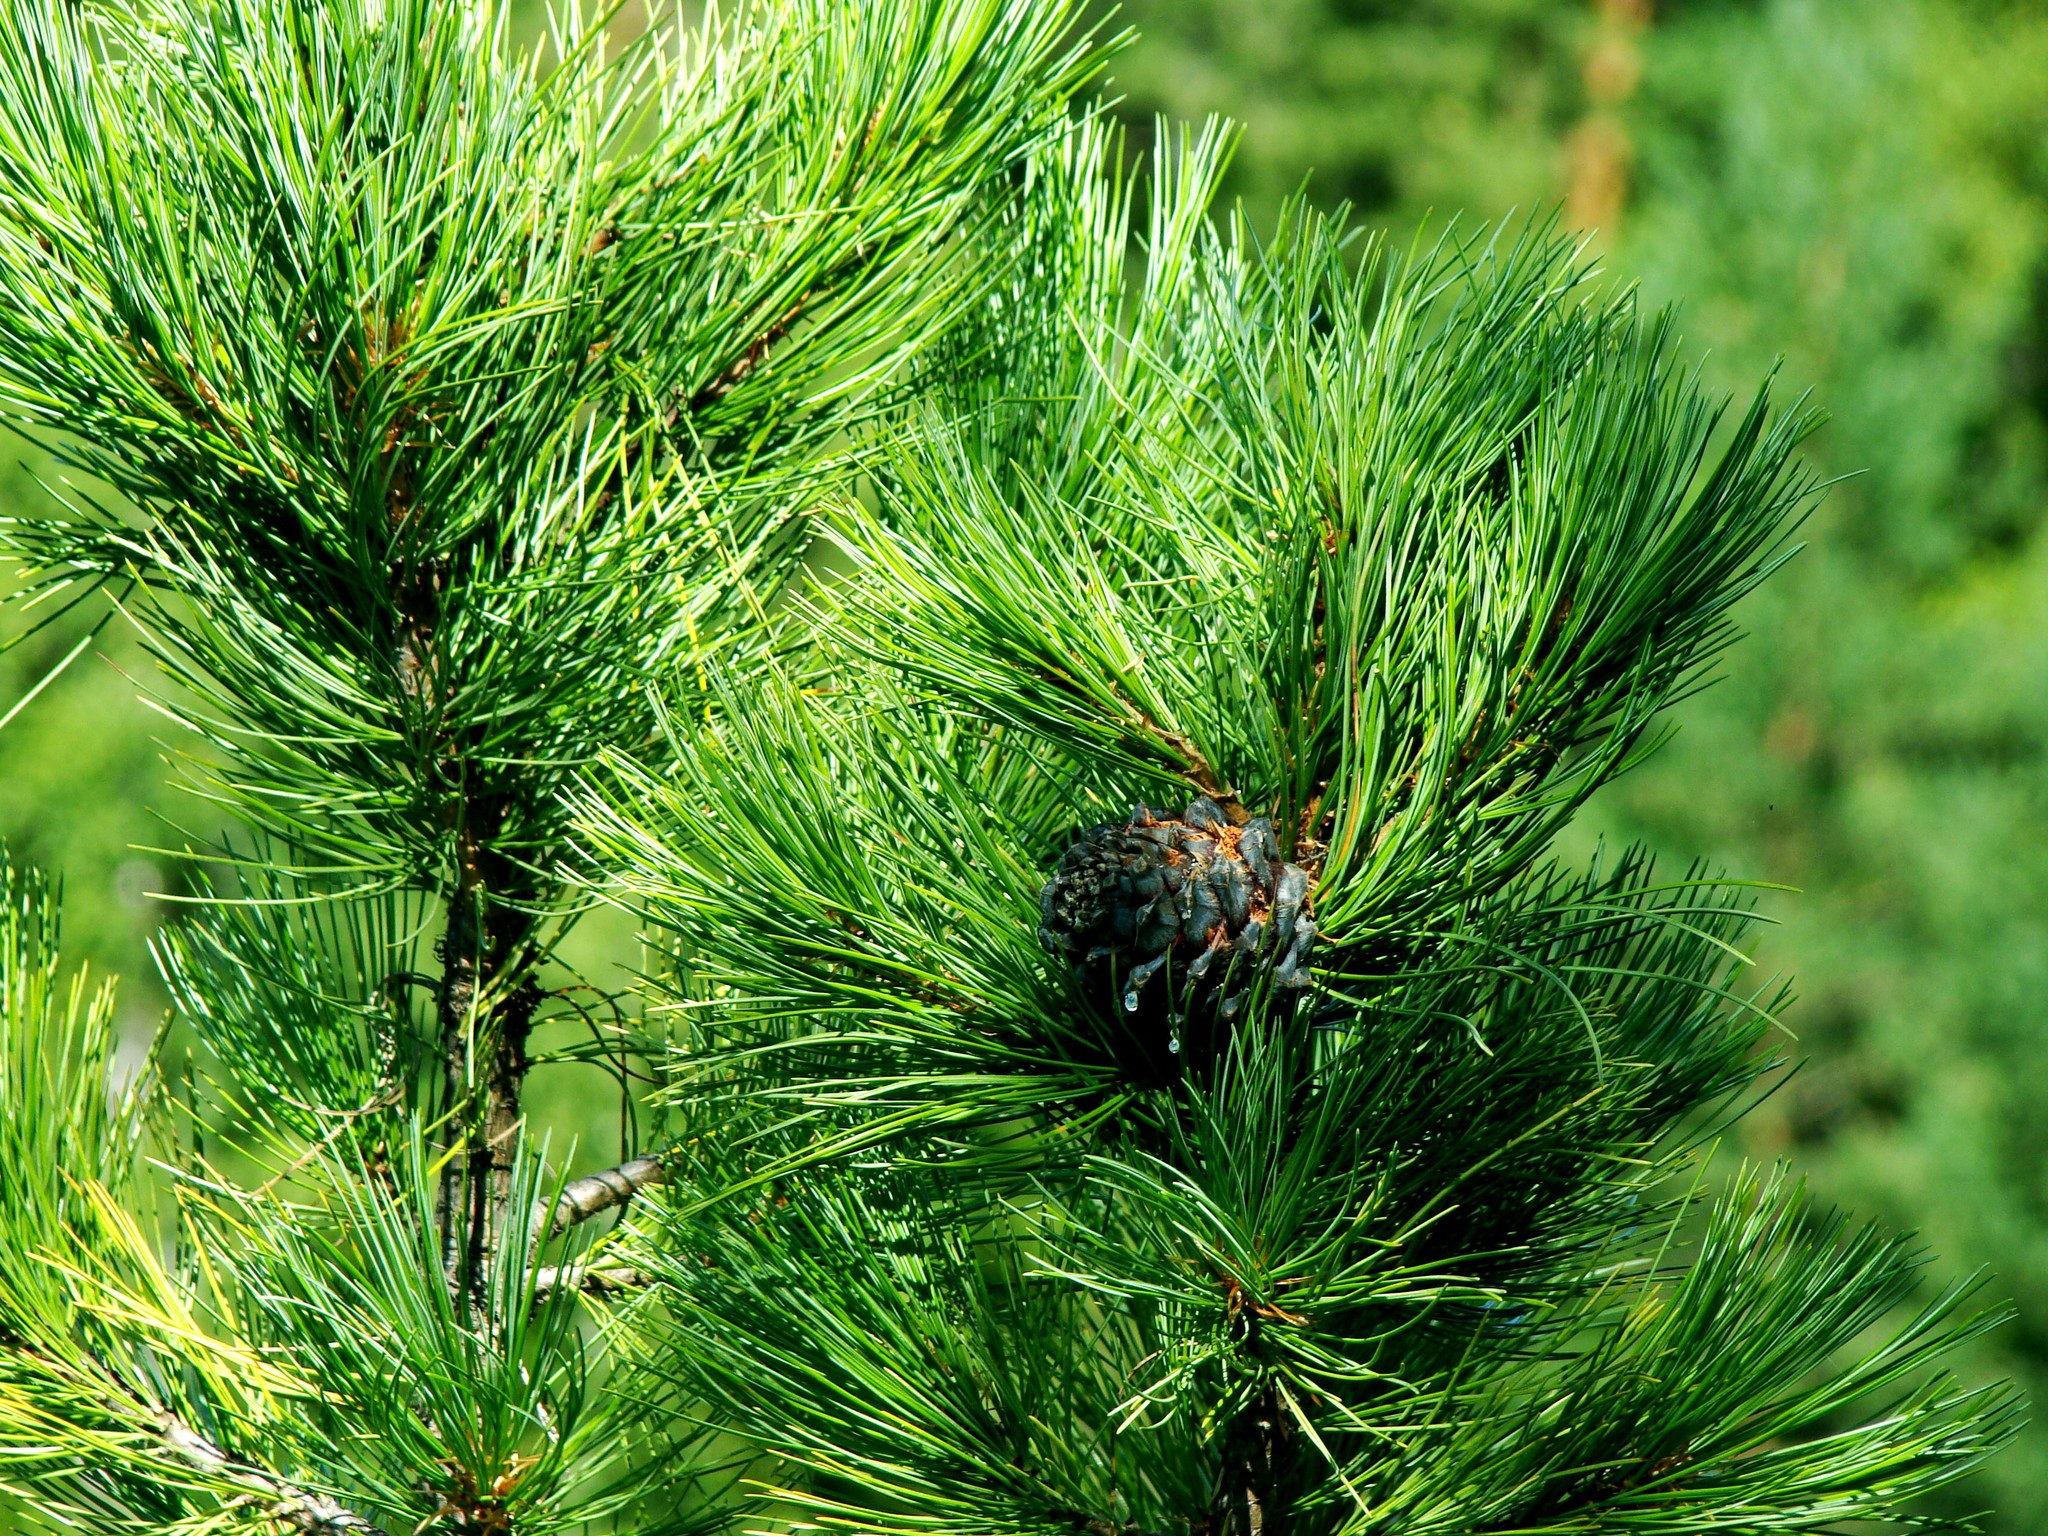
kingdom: Plantae
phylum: Tracheophyta
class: Pinopsida
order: Pinales
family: Pinaceae
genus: Pinus
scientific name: Pinus sibirica
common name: Siberian pine
